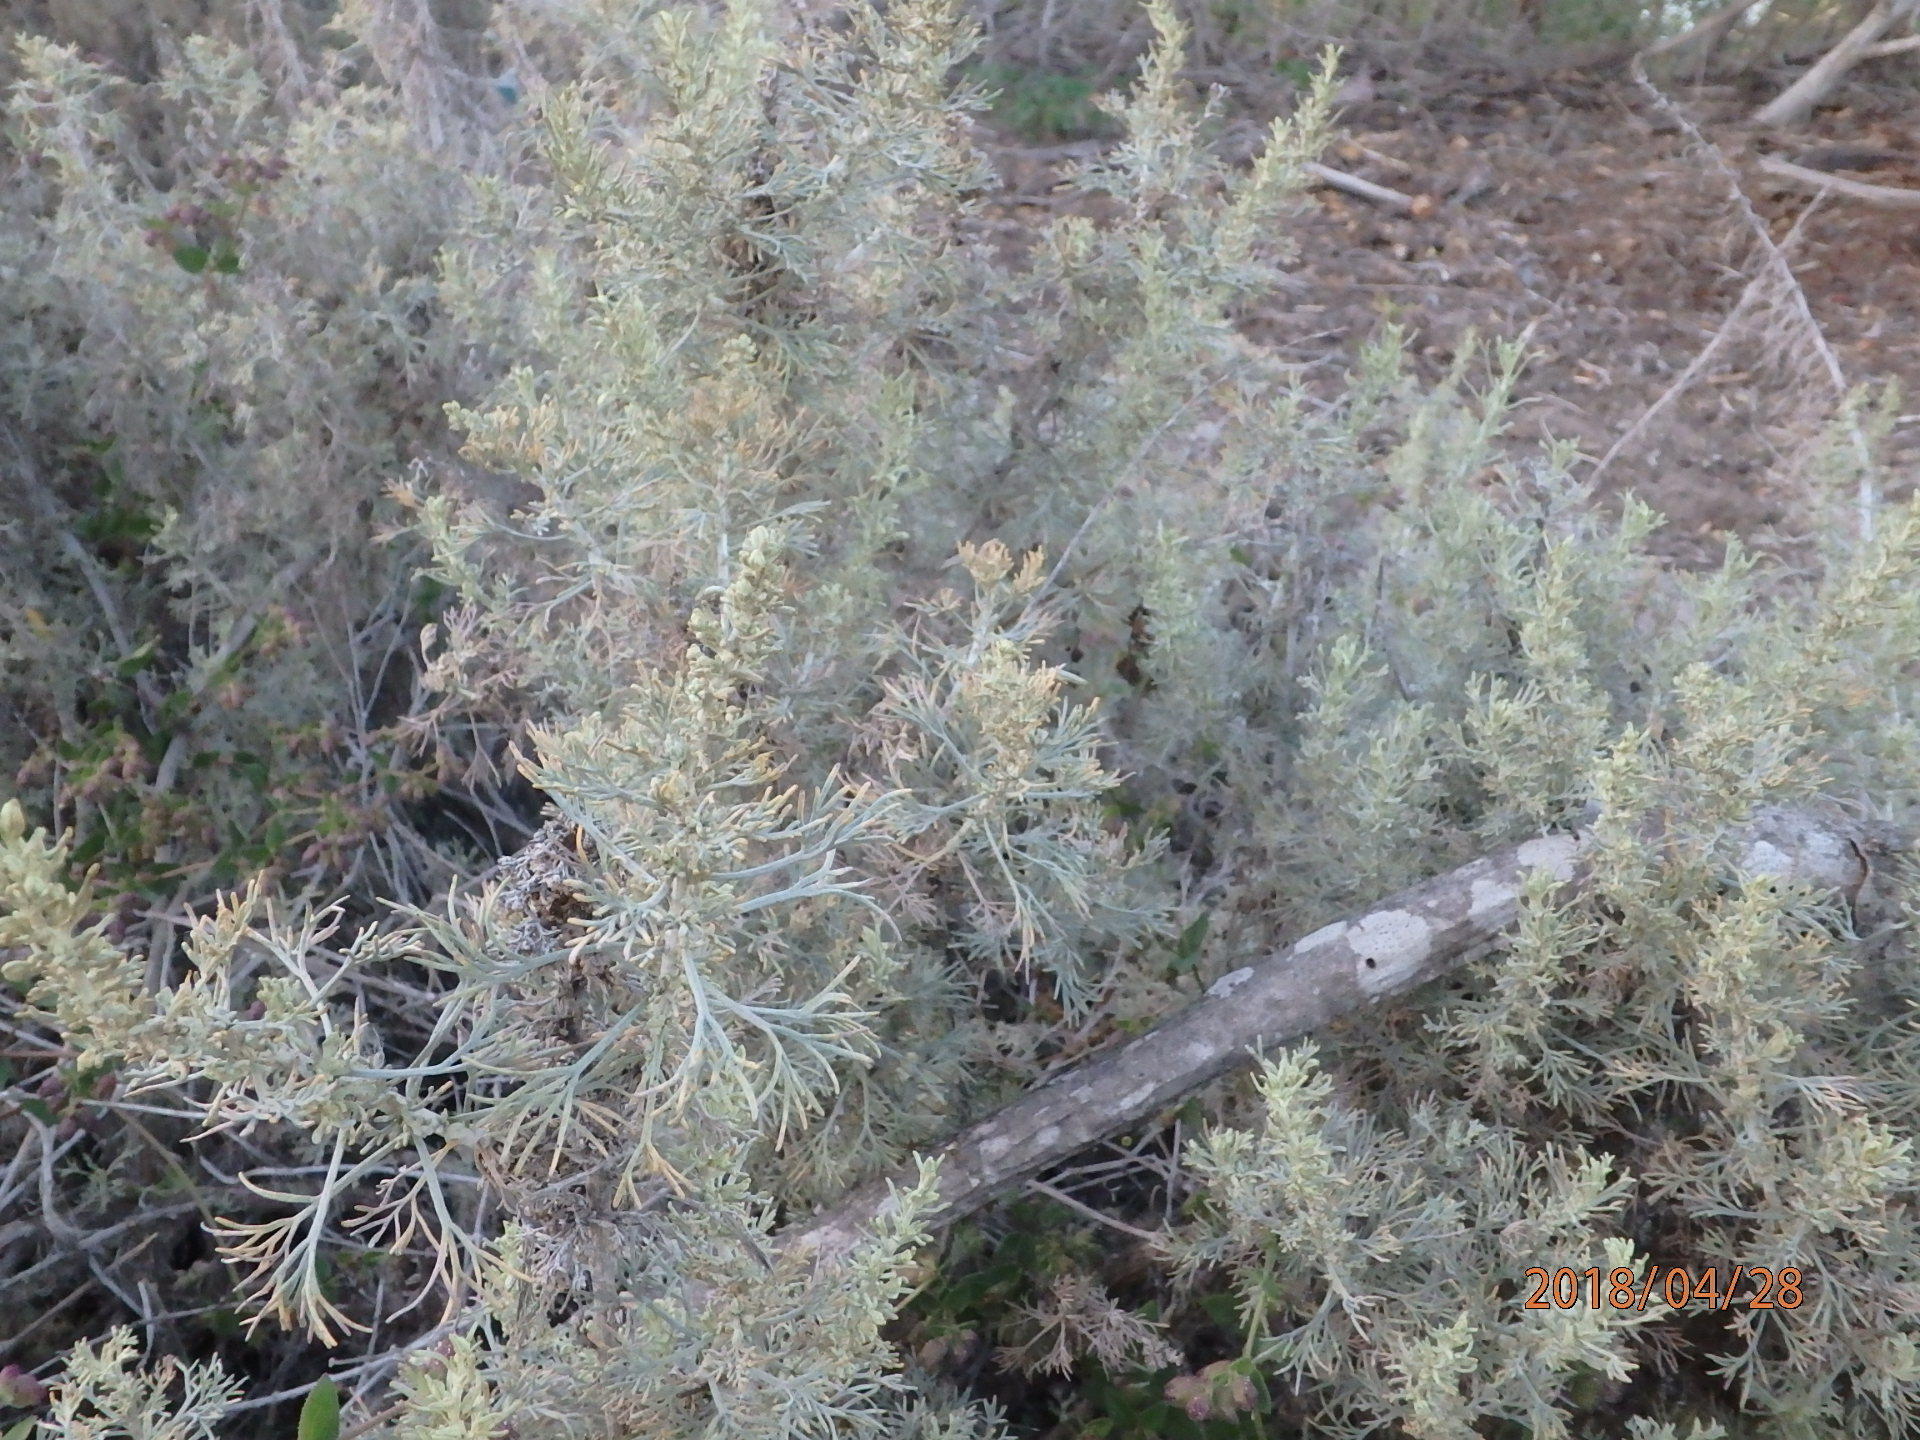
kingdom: Plantae
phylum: Tracheophyta
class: Magnoliopsida
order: Asterales
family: Asteraceae
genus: Artemisia
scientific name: Artemisia californica
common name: California sagebrush
